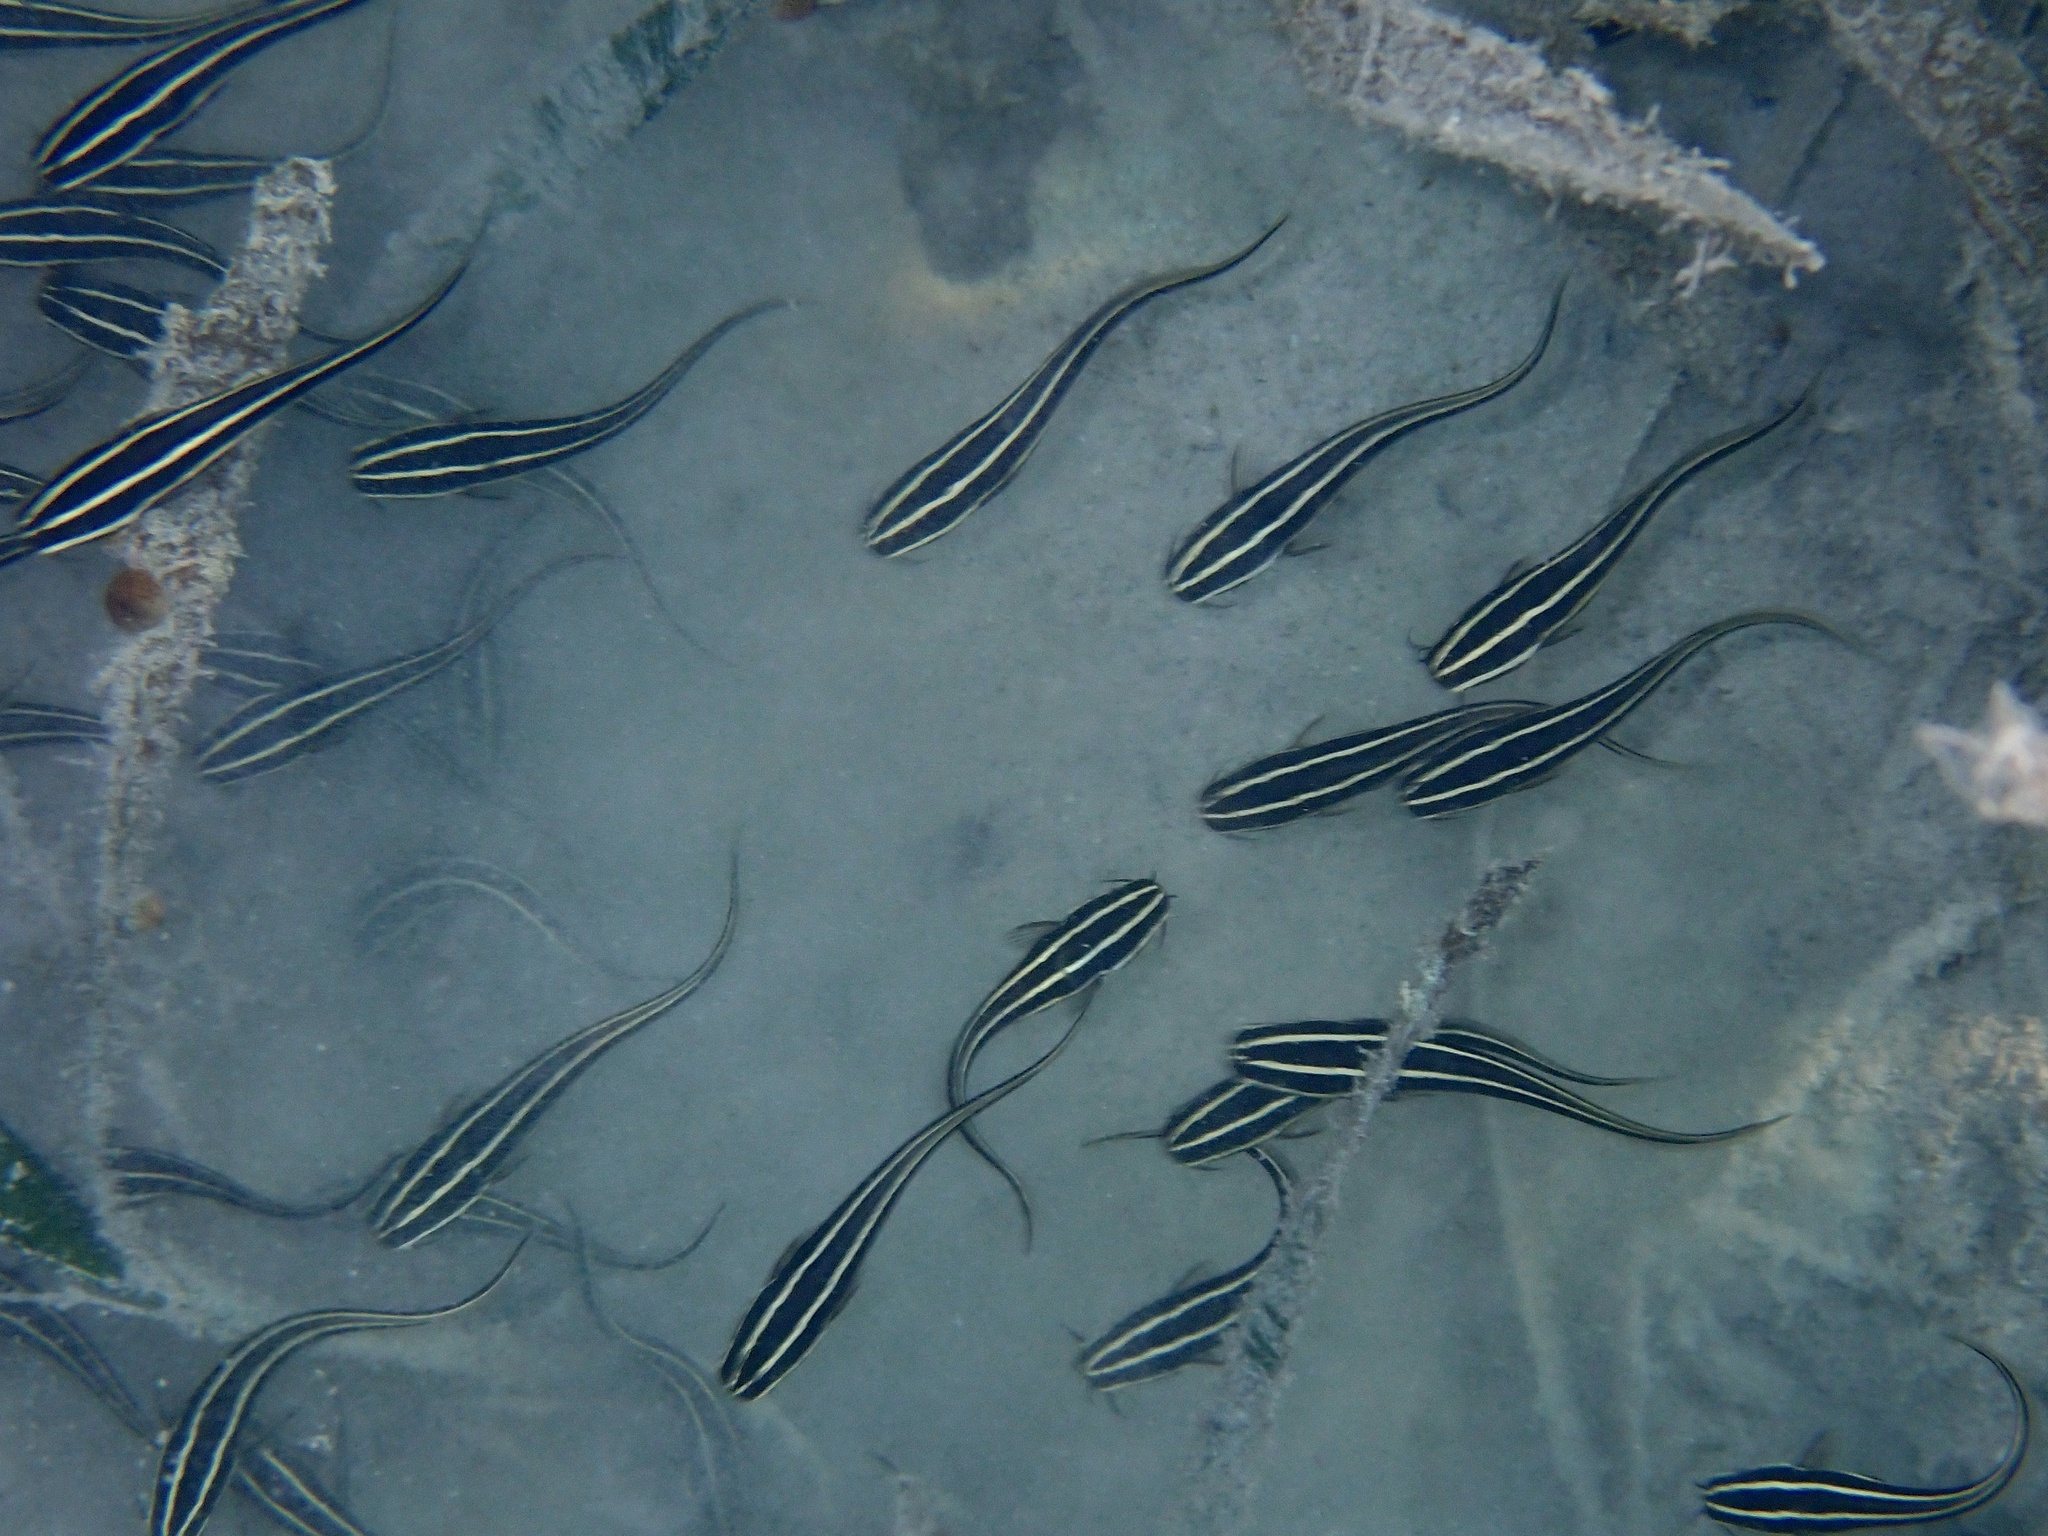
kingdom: Animalia
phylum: Chordata
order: Siluriformes
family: Plotosidae
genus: Plotosus
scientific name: Plotosus lineatus
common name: Striped eel catfish
